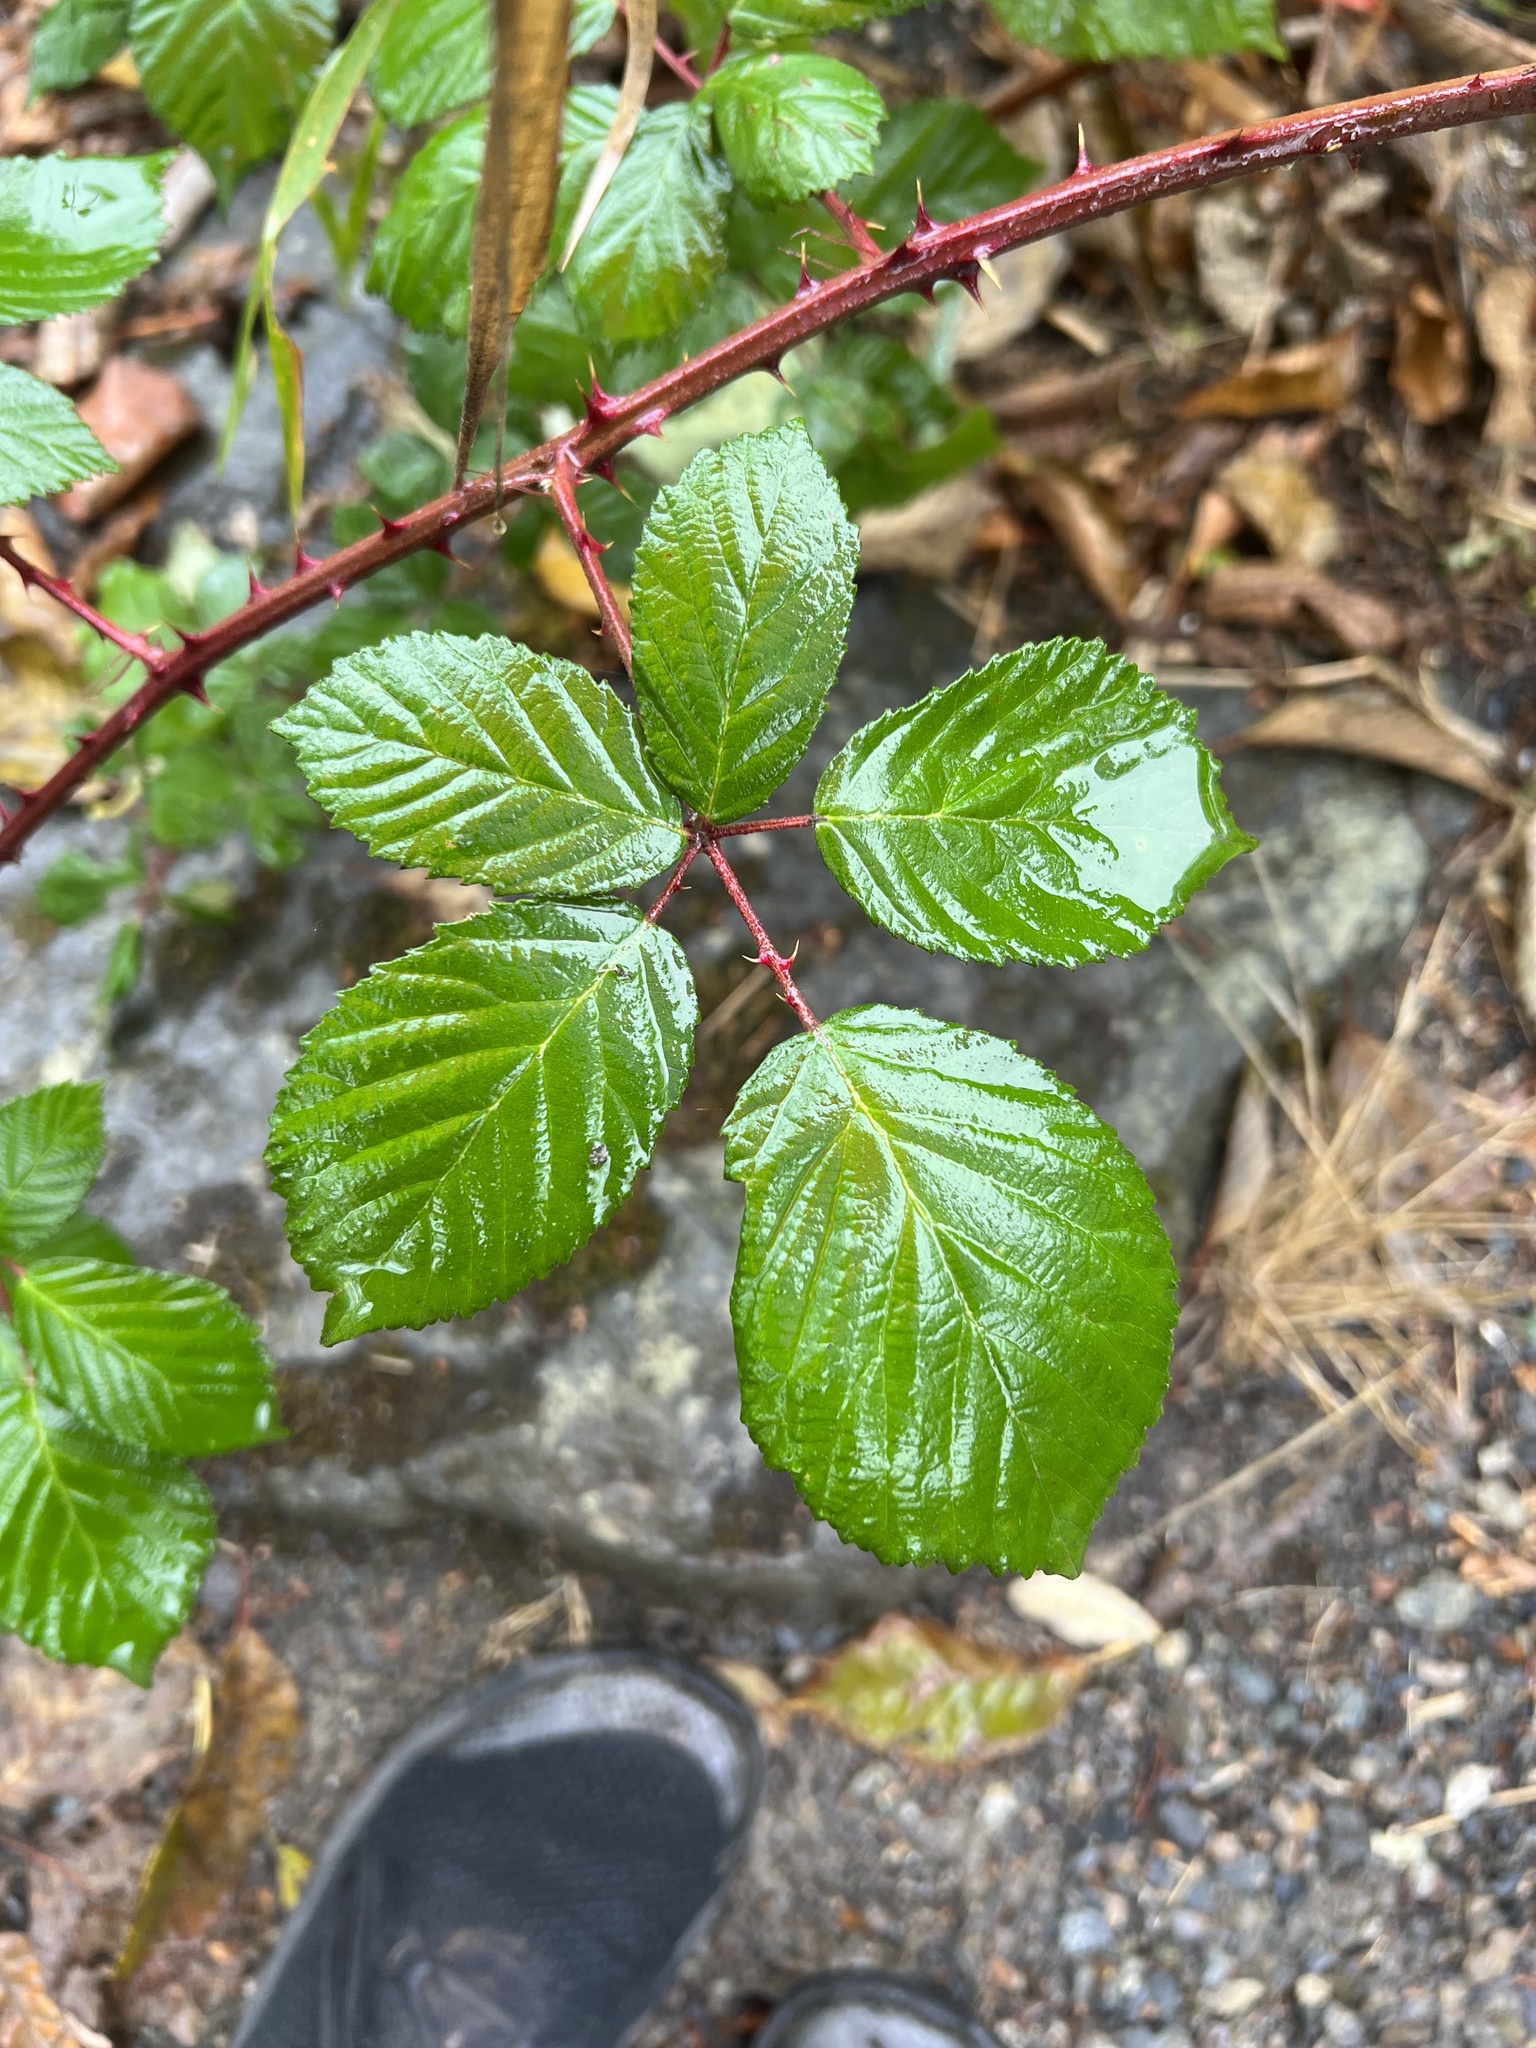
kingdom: Plantae
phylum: Tracheophyta
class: Magnoliopsida
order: Rosales
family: Rosaceae
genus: Rubus
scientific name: Rubus bifrons
